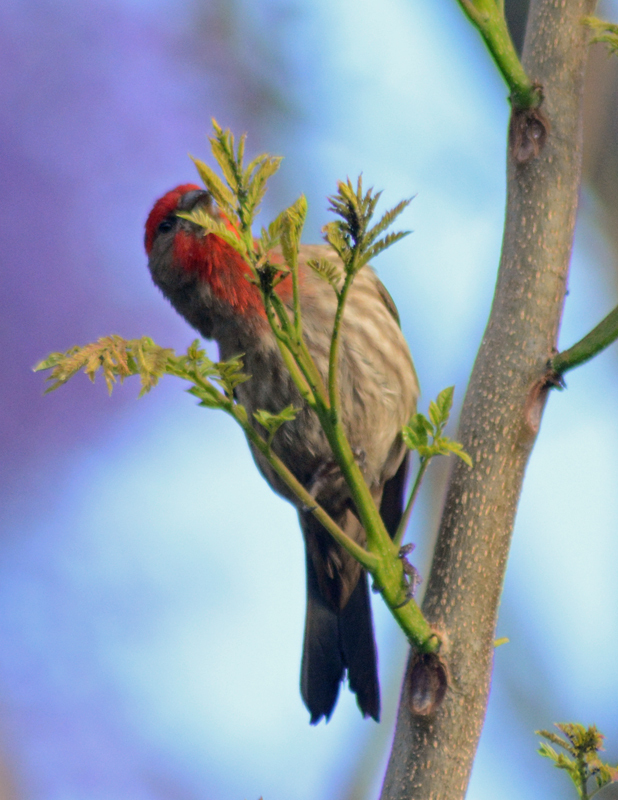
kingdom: Animalia
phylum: Chordata
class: Aves
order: Passeriformes
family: Fringillidae
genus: Haemorhous
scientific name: Haemorhous mexicanus
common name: House finch
